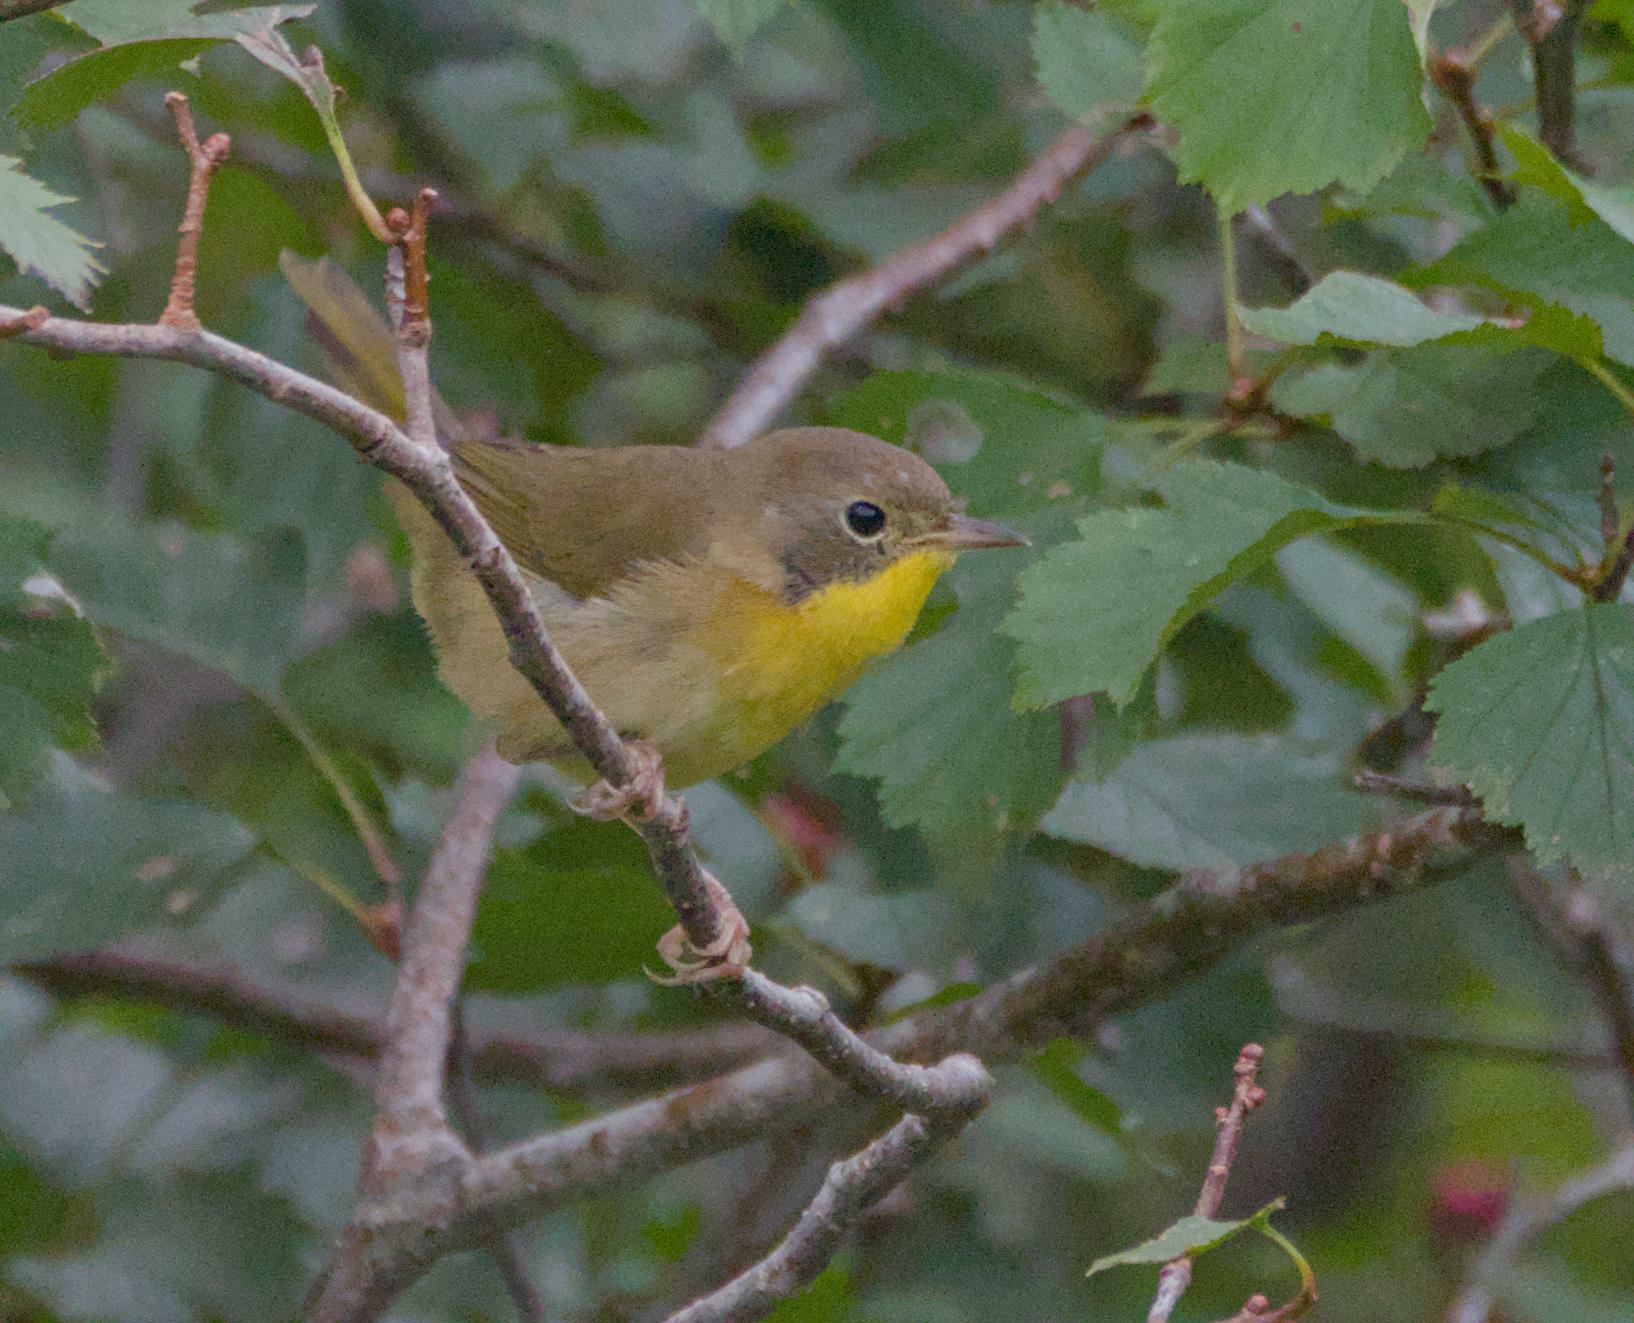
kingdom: Animalia
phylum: Chordata
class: Aves
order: Passeriformes
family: Parulidae
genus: Geothlypis
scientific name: Geothlypis trichas
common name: Common yellowthroat
